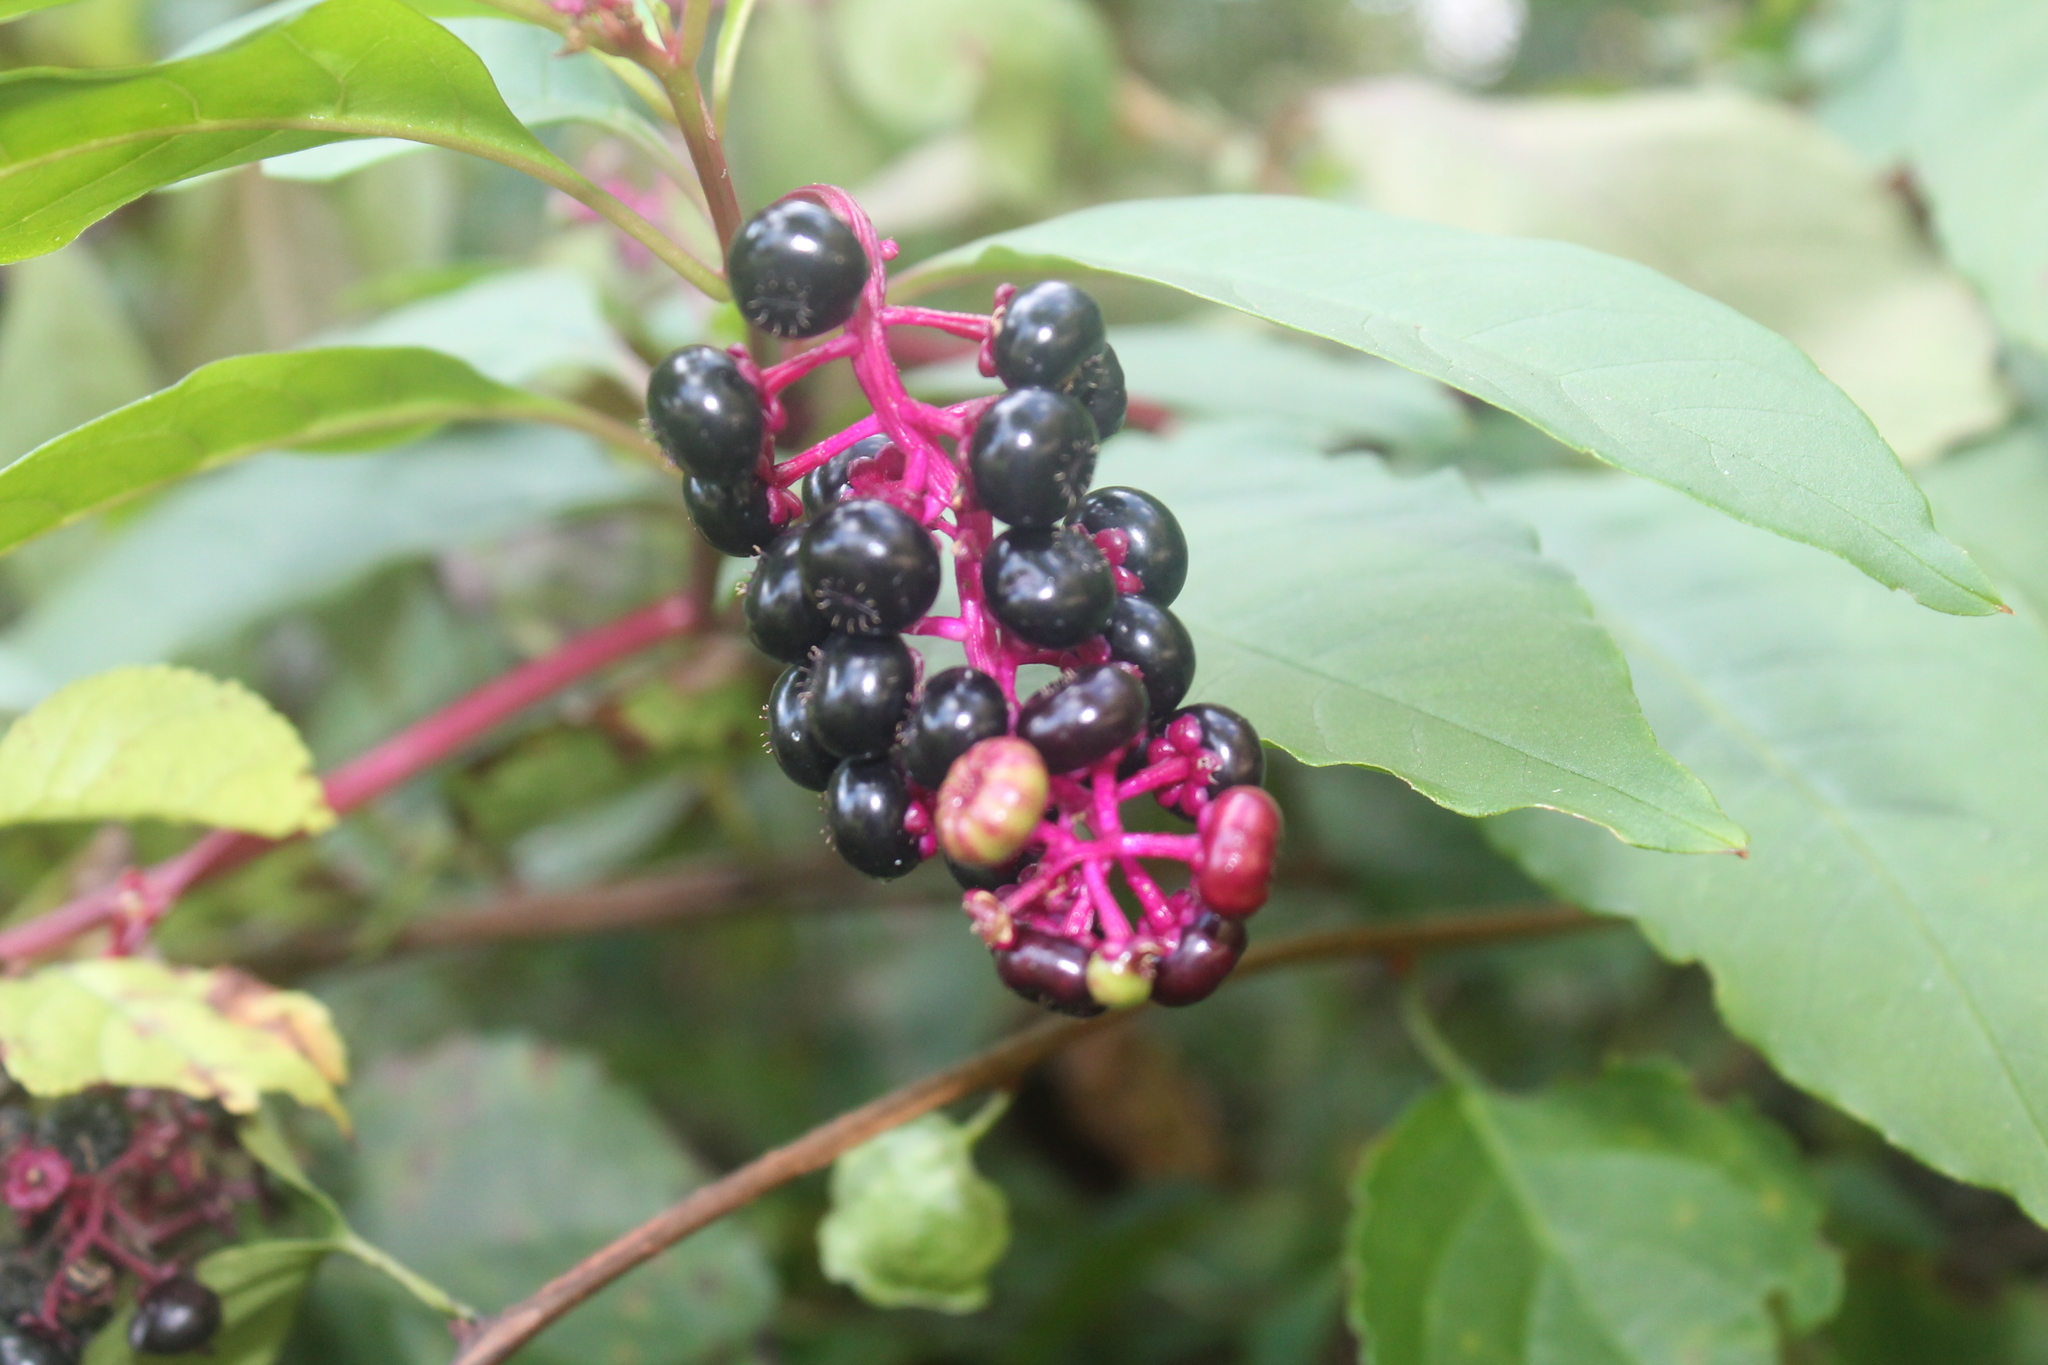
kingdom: Plantae
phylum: Tracheophyta
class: Magnoliopsida
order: Caryophyllales
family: Phytolaccaceae
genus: Phytolacca
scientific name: Phytolacca americana
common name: American pokeweed
